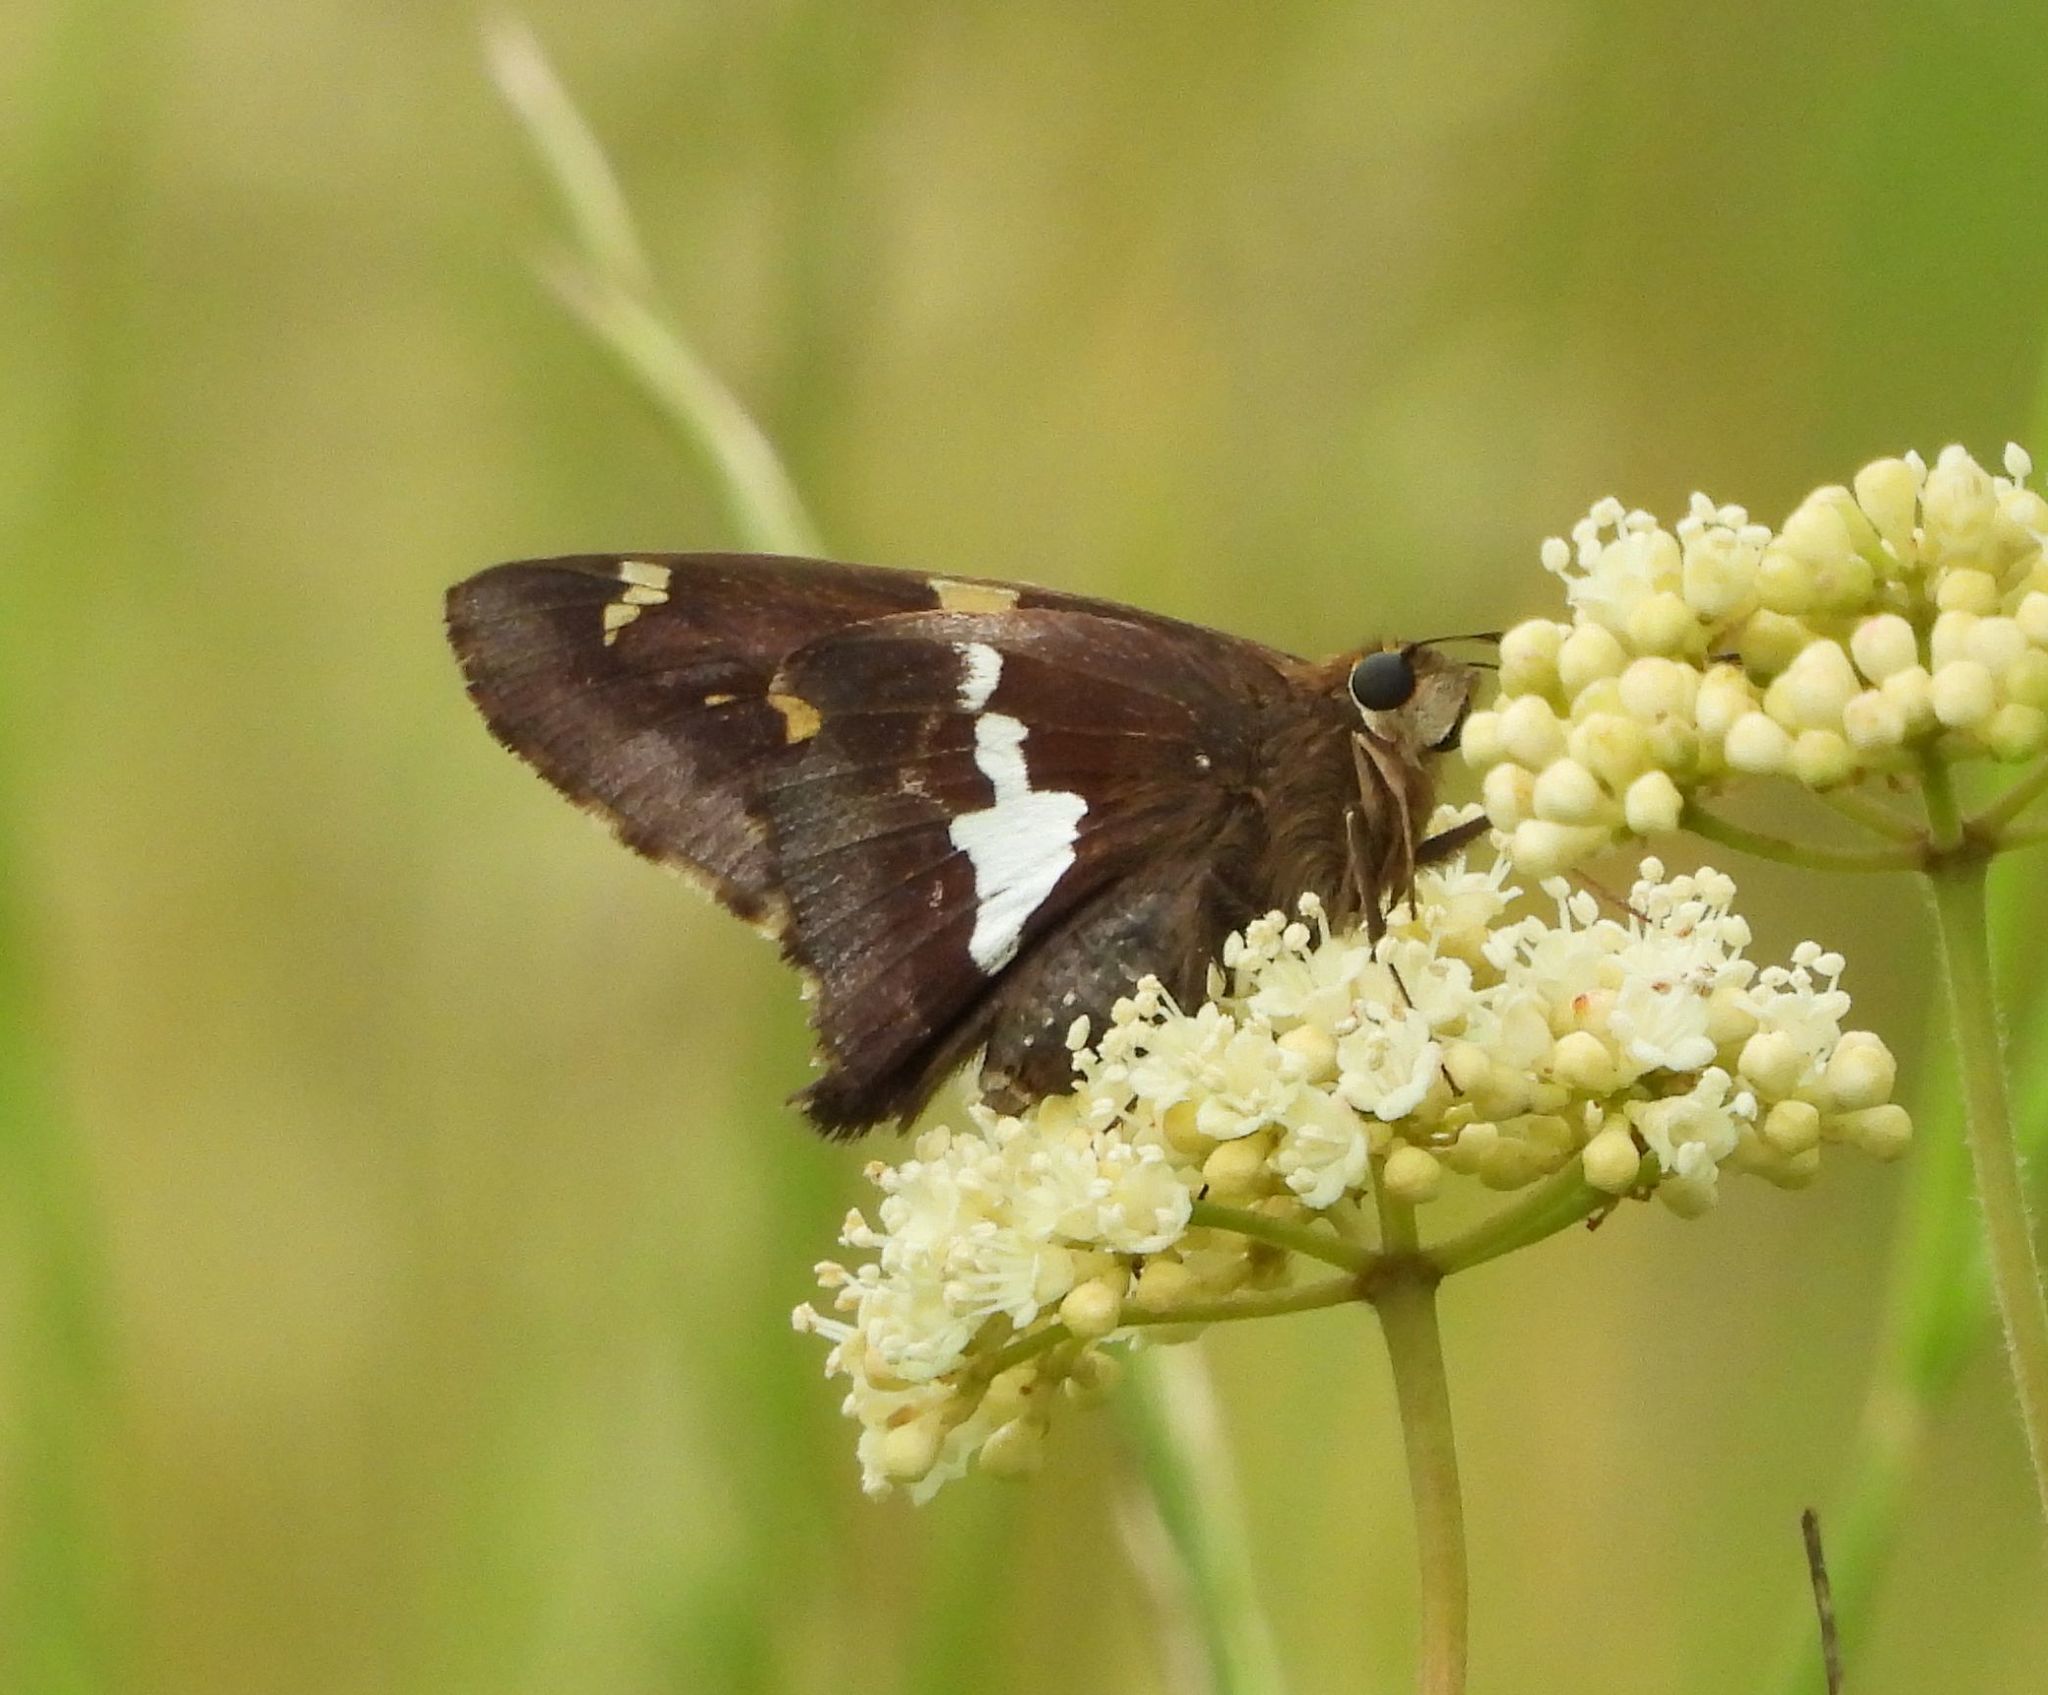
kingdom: Animalia
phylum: Arthropoda
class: Insecta
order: Lepidoptera
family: Hesperiidae
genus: Epargyreus
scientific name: Epargyreus clarus
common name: Silver-spotted skipper
